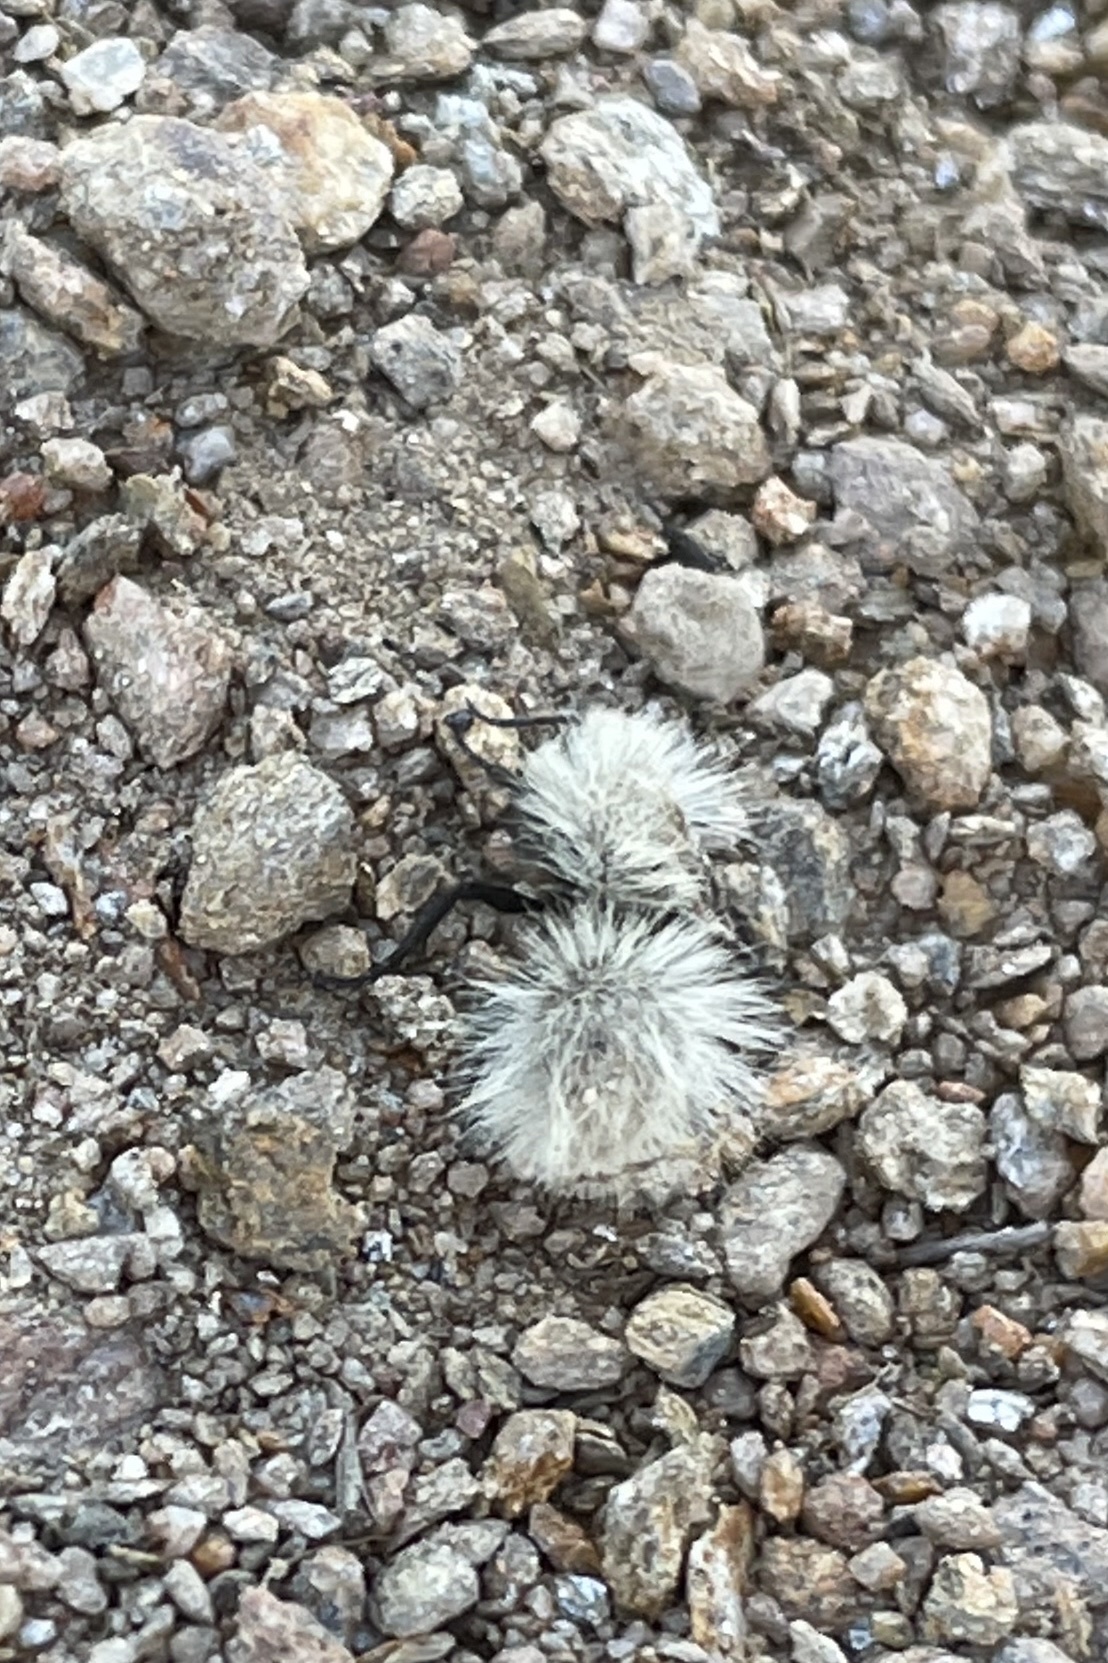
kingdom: Animalia
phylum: Arthropoda
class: Insecta
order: Hymenoptera
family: Mutillidae
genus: Dasymutilla
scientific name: Dasymutilla
